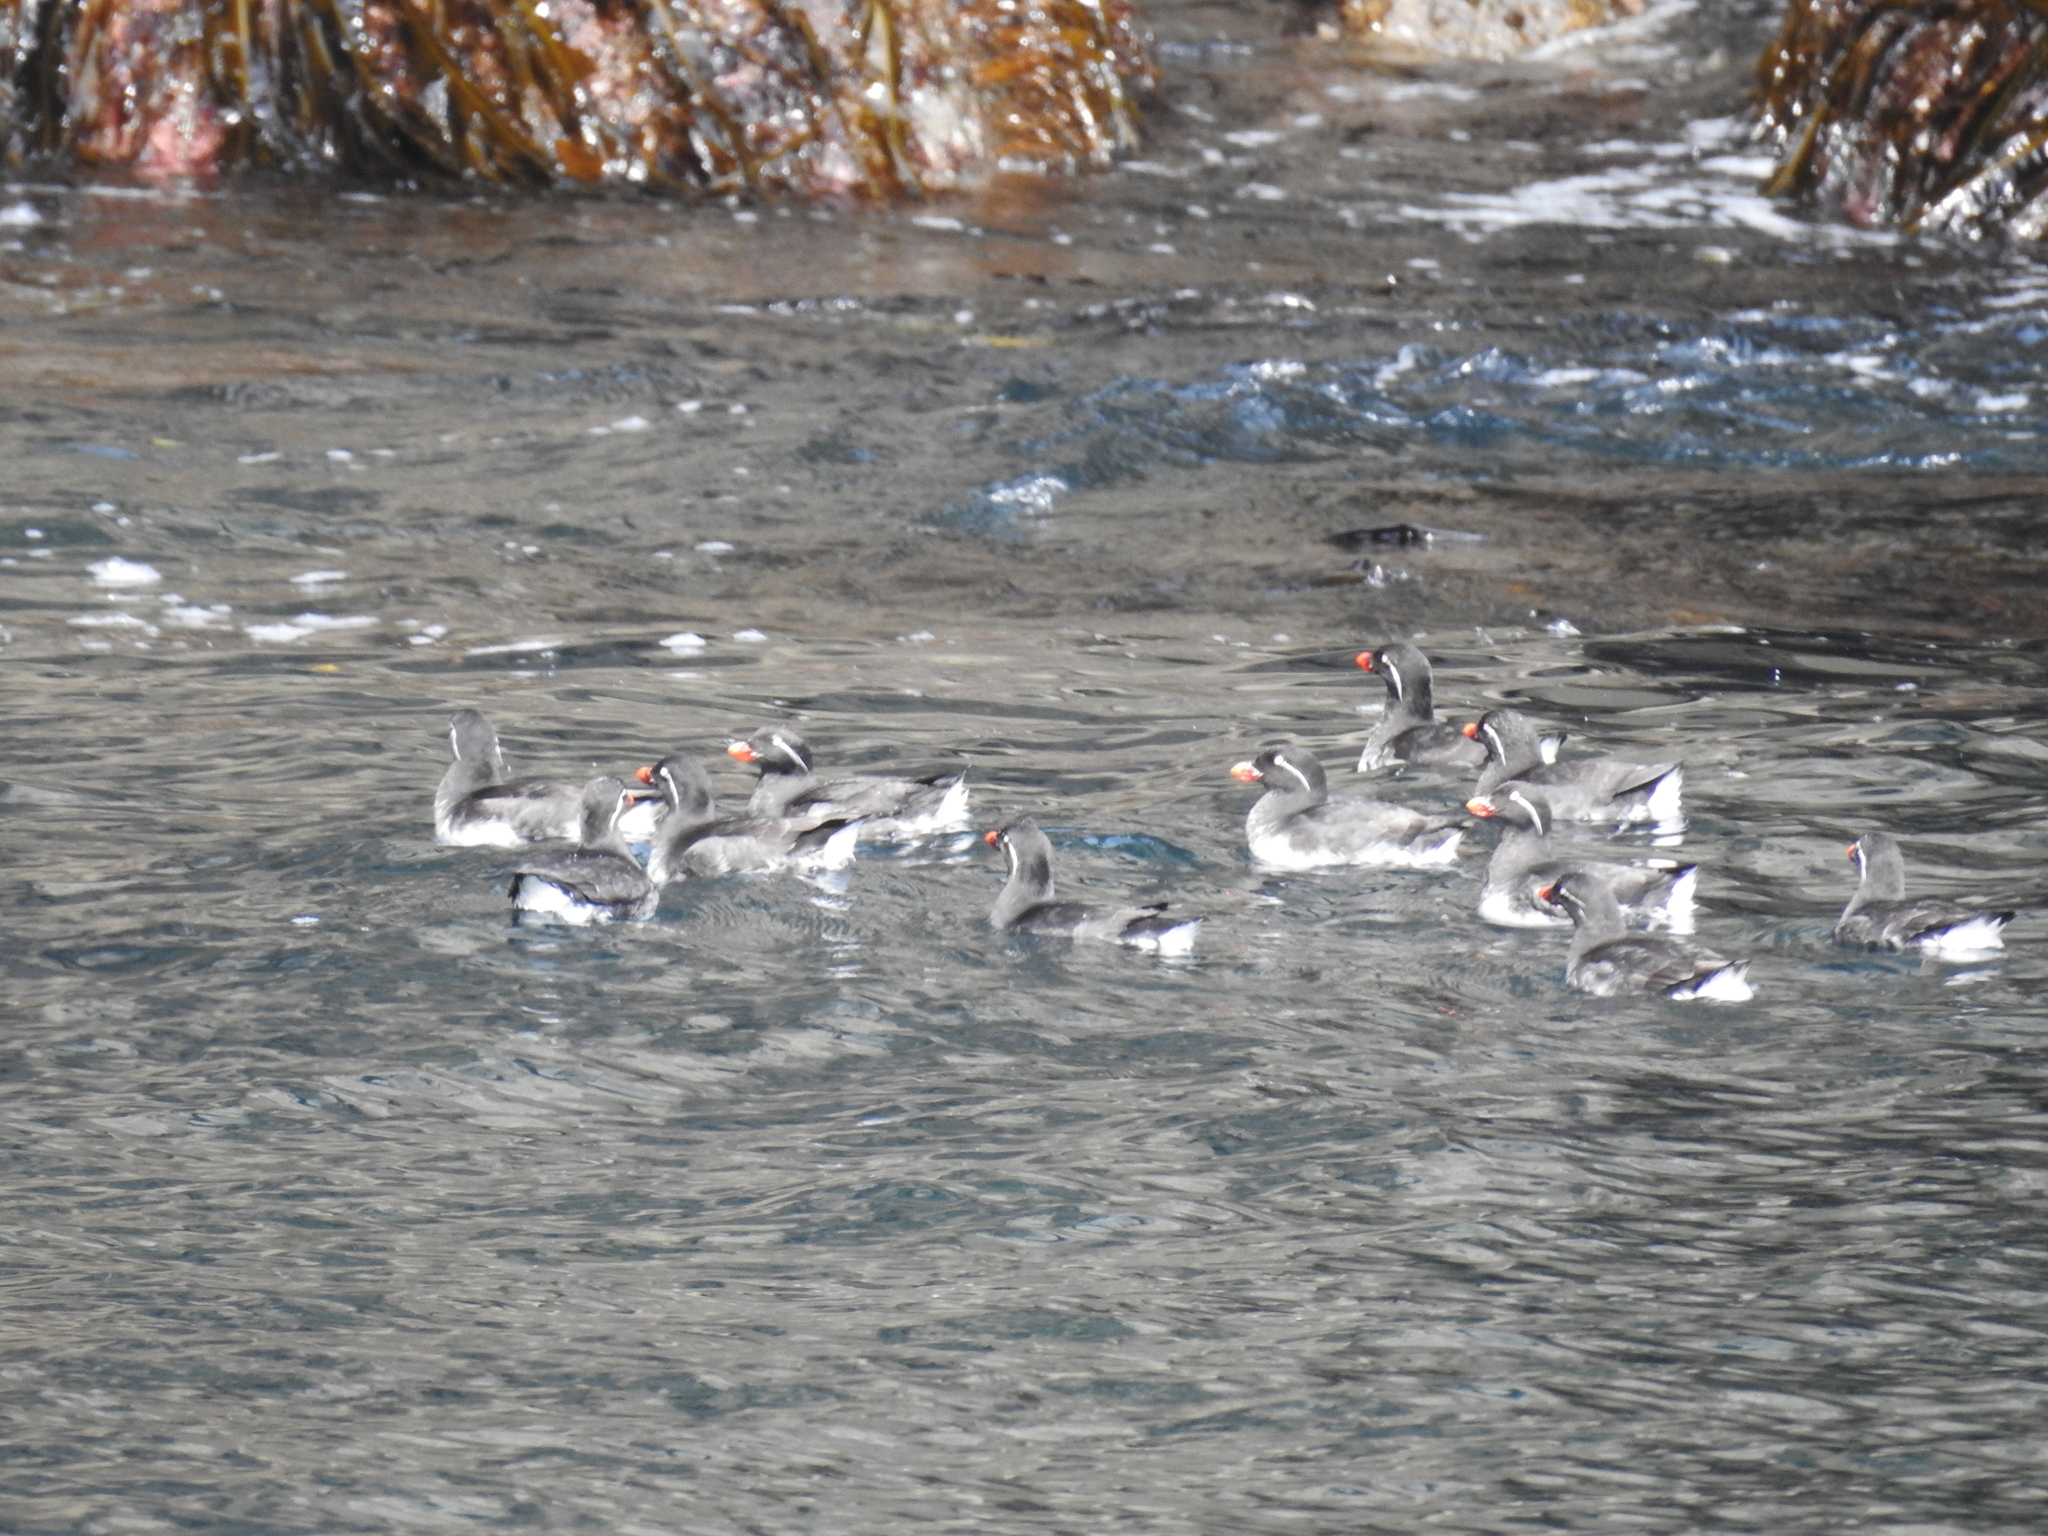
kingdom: Animalia
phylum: Chordata
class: Aves
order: Charadriiformes
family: Alcidae
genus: Aethia
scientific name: Aethia psittacula
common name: Parakeet auklet
